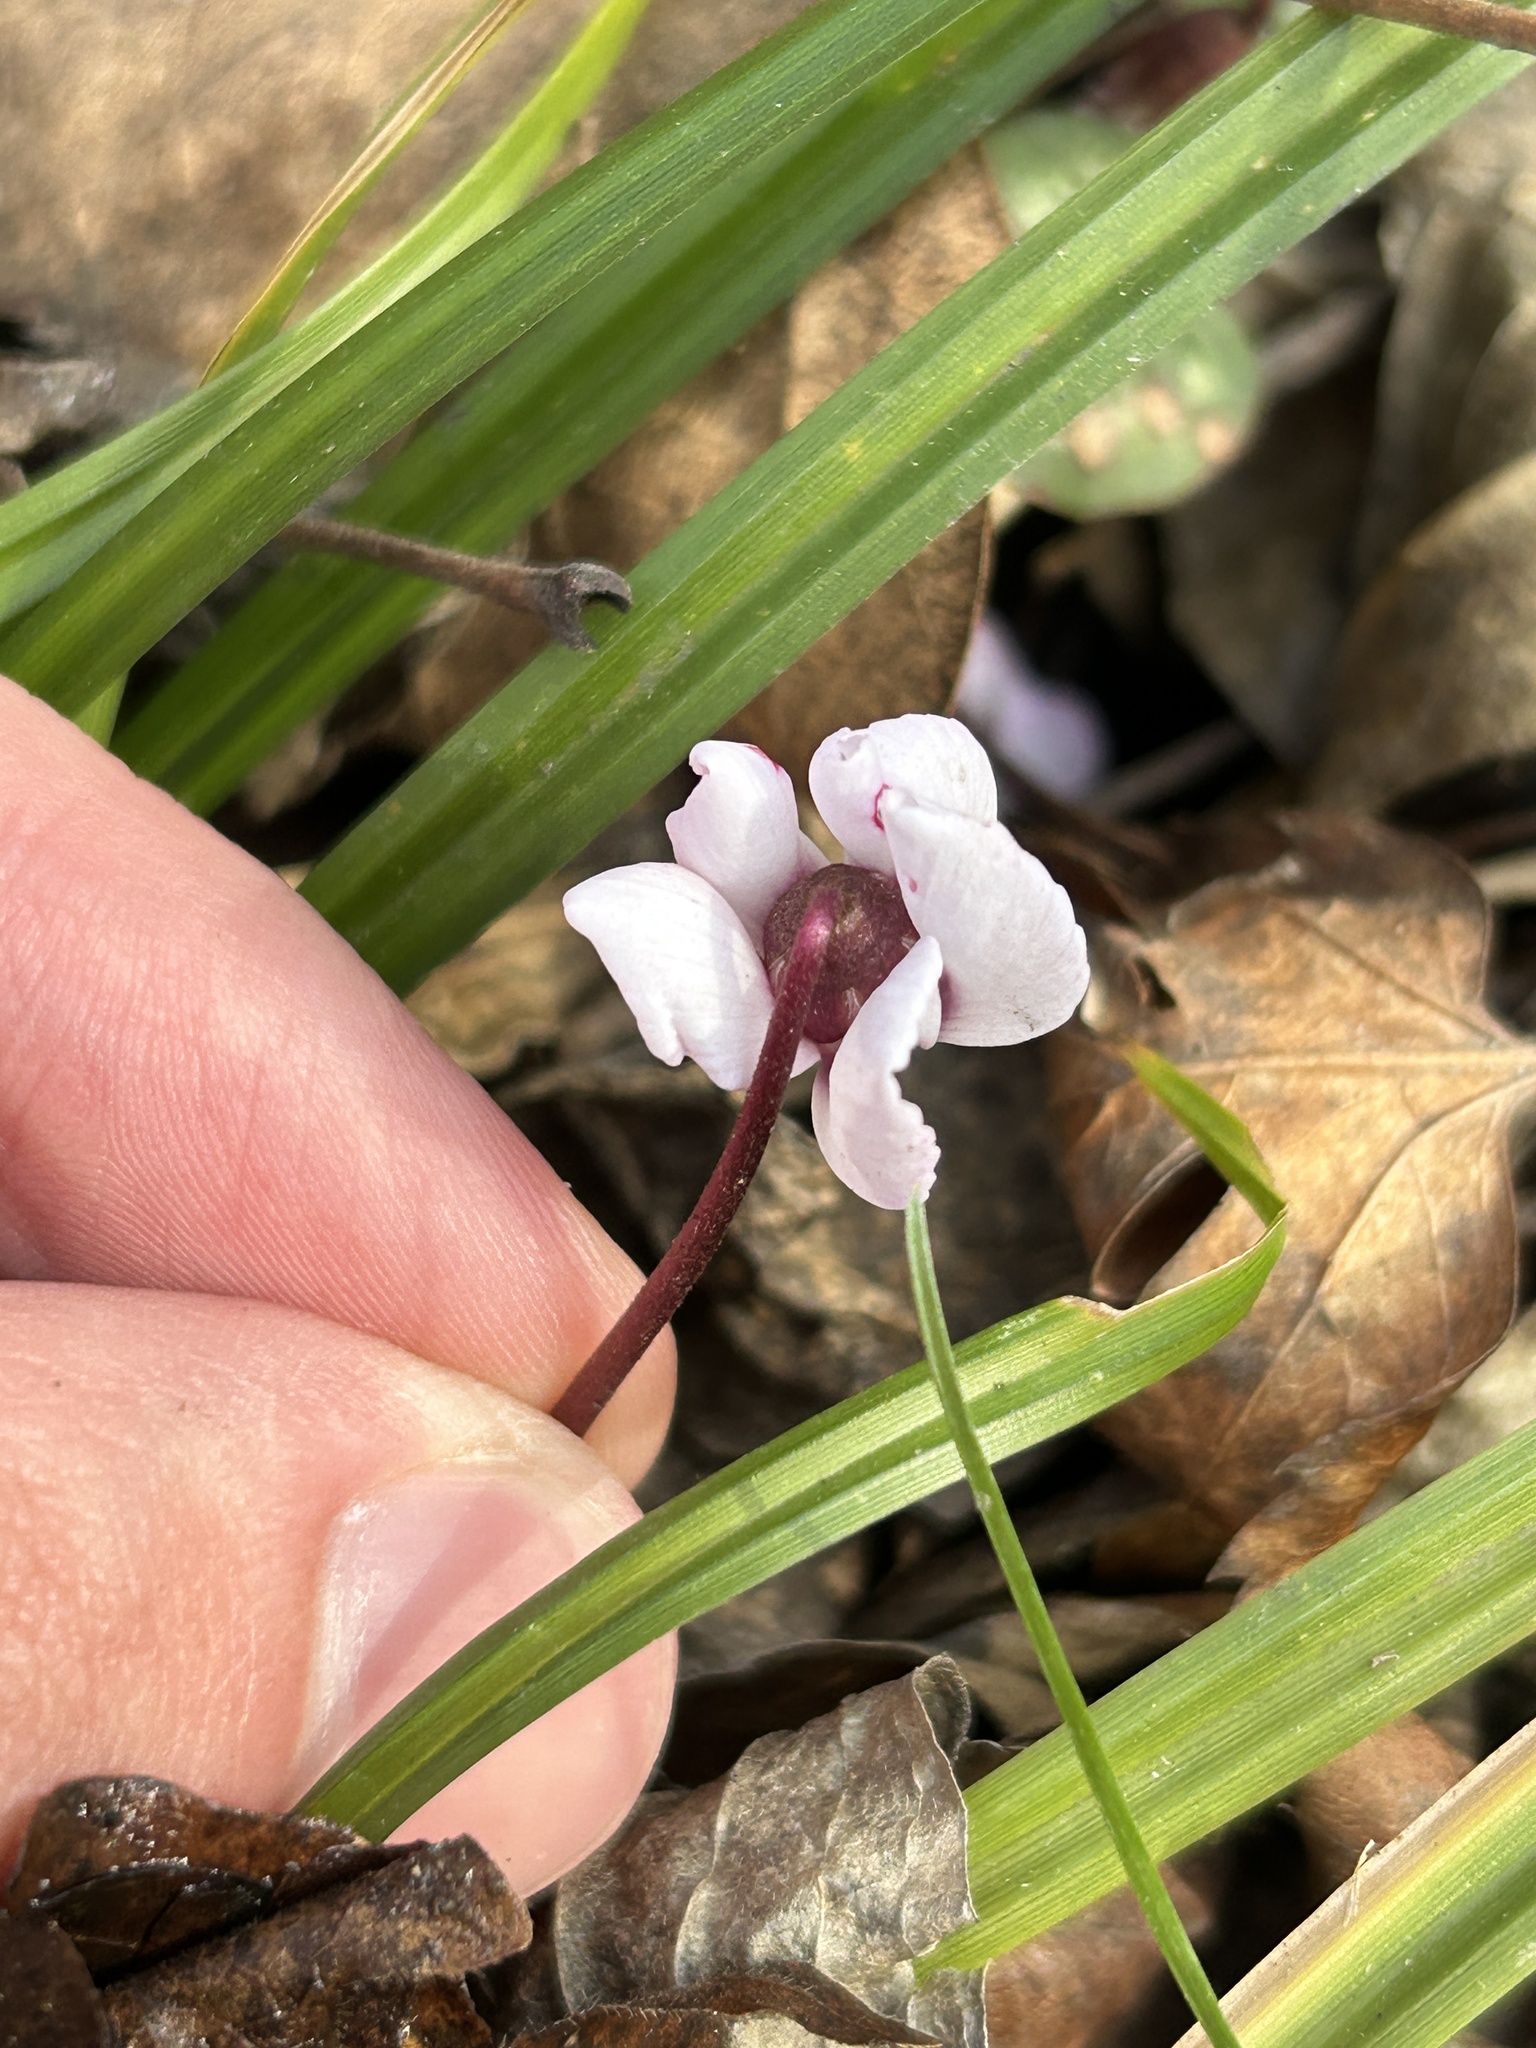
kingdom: Plantae
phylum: Tracheophyta
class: Magnoliopsida
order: Ericales
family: Primulaceae
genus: Cyclamen
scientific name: Cyclamen coum
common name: Eastern sowbread
